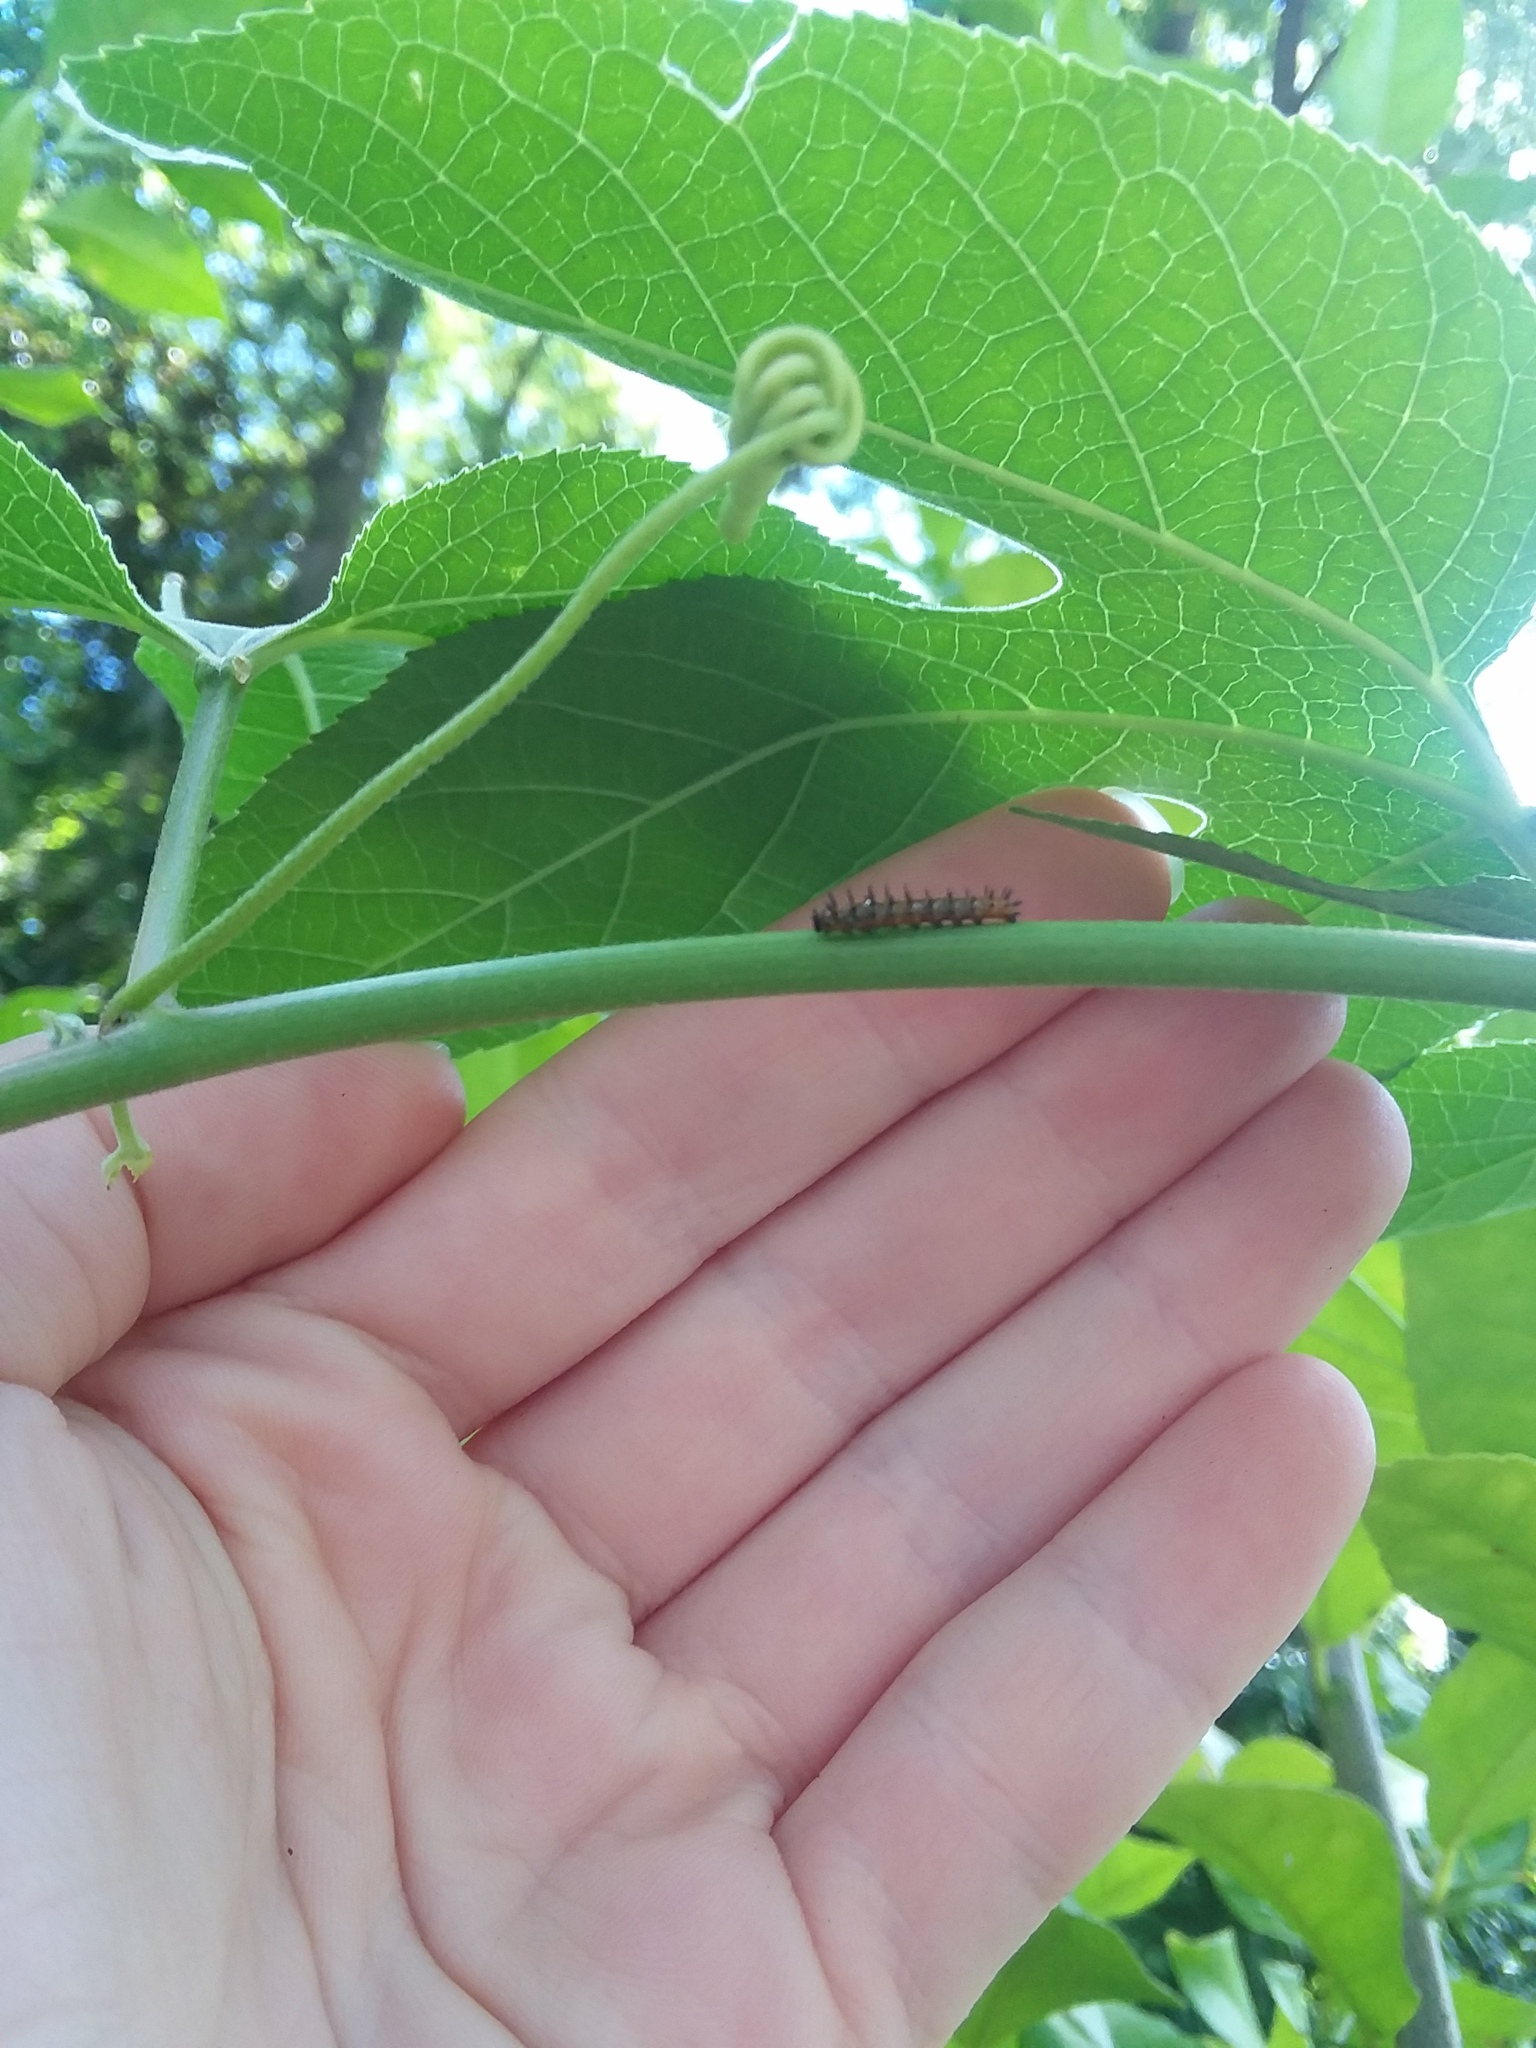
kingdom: Animalia
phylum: Arthropoda
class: Insecta
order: Lepidoptera
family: Nymphalidae
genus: Dione
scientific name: Dione vanillae
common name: Gulf fritillary
